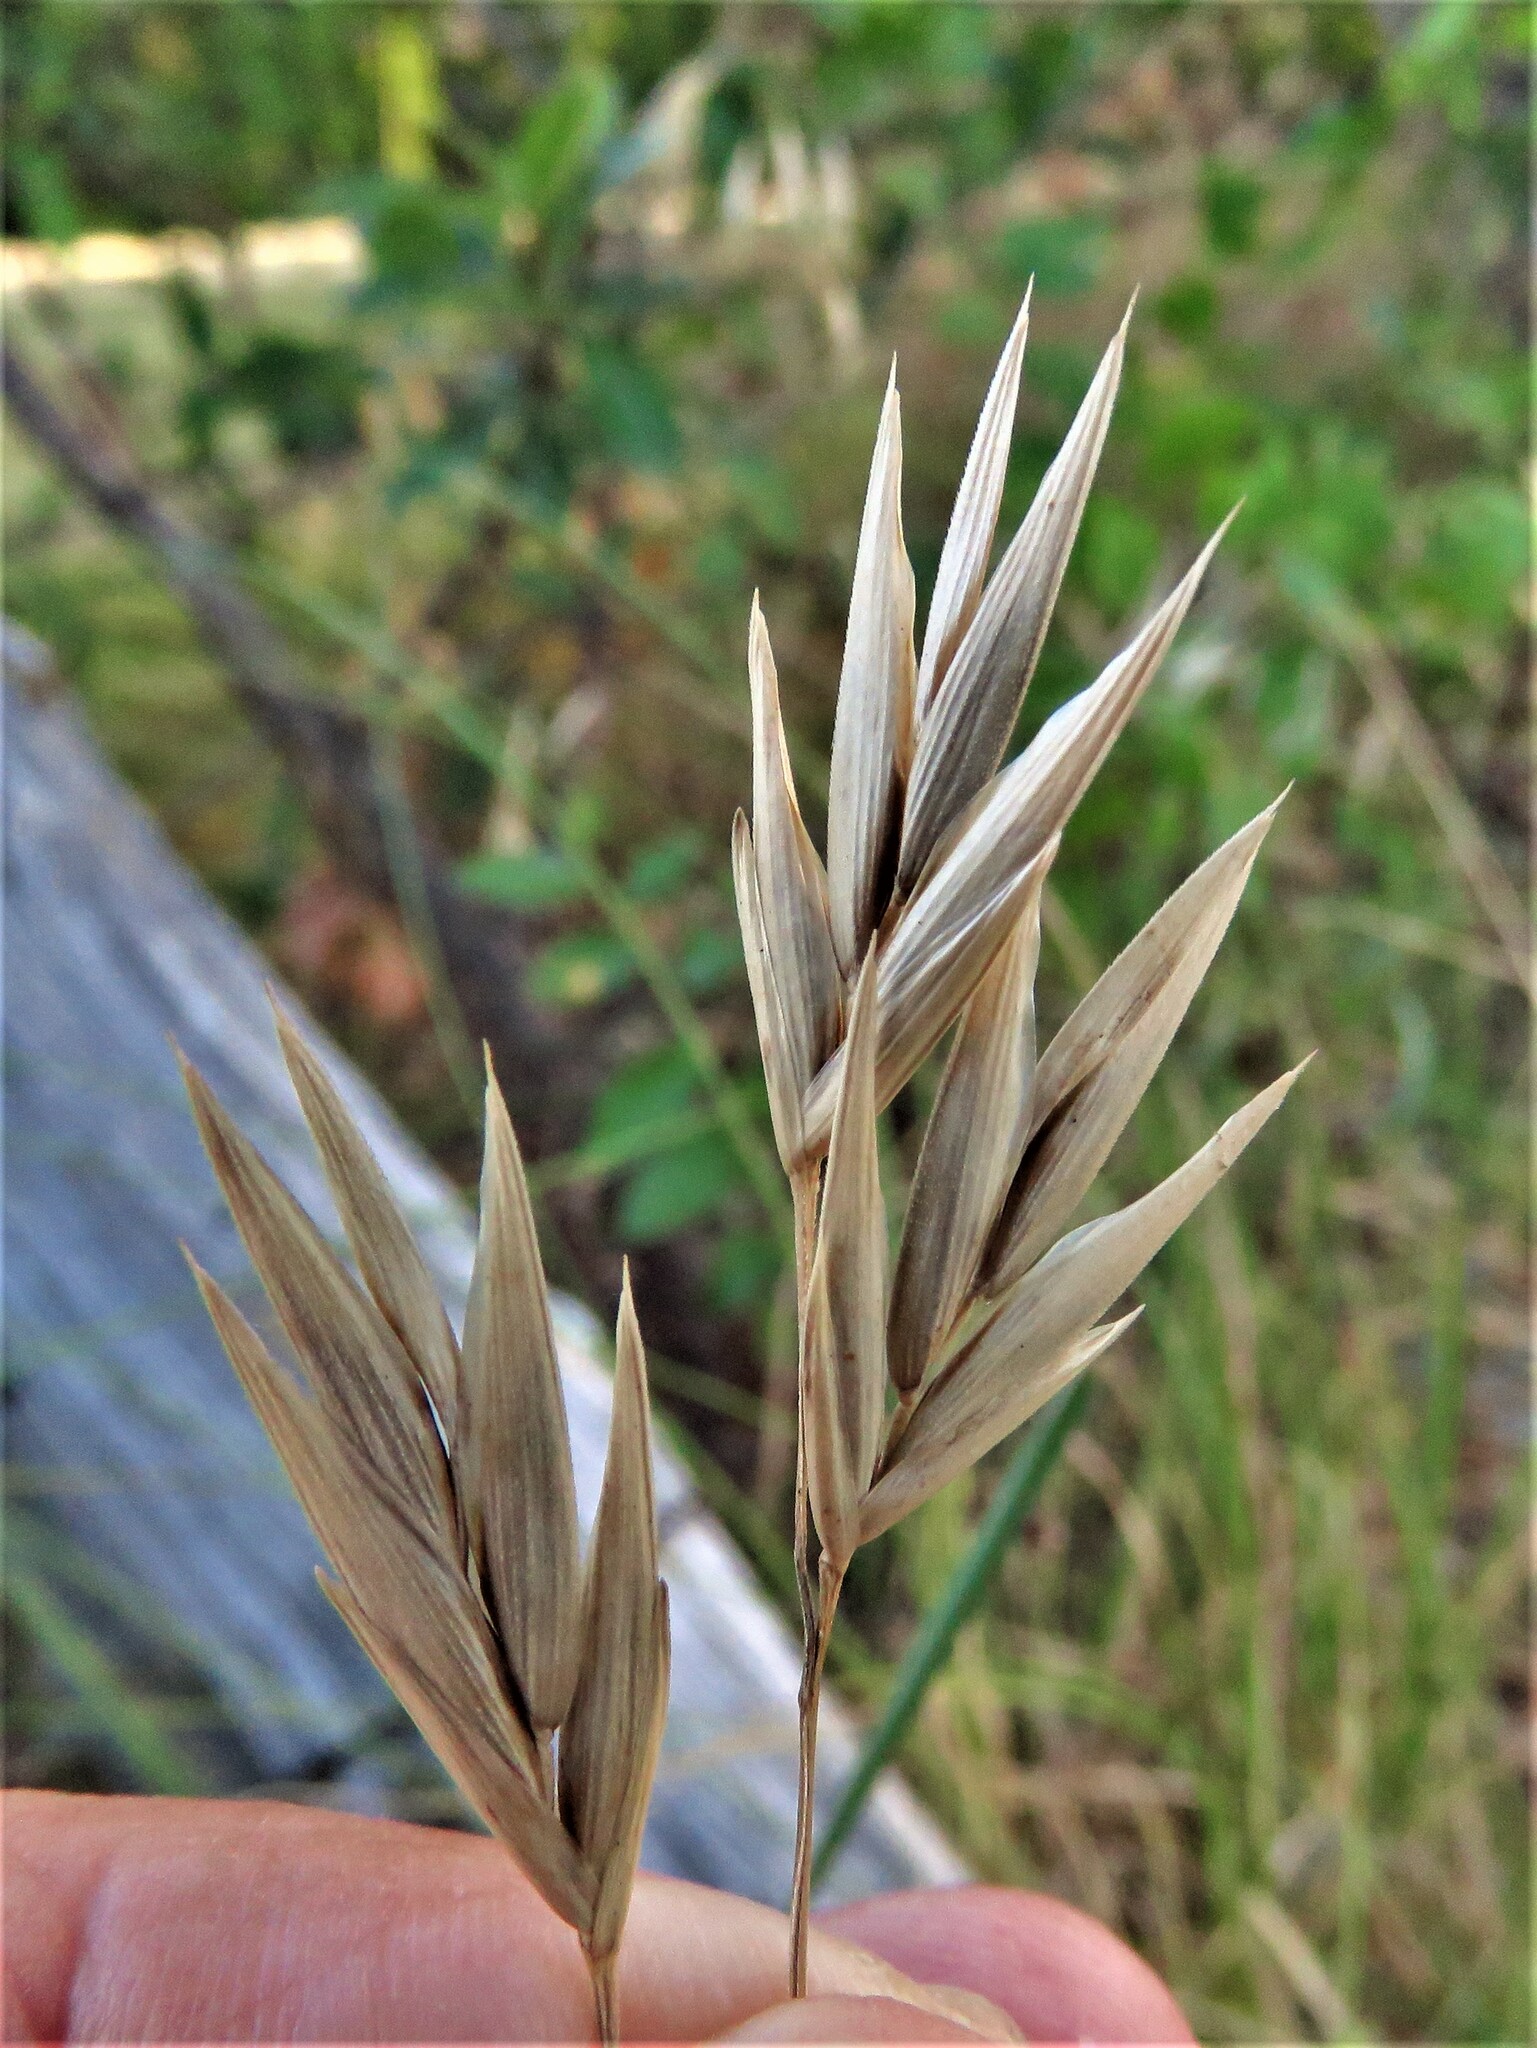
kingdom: Plantae
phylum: Tracheophyta
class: Liliopsida
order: Poales
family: Poaceae
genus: Bromus
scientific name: Bromus catharticus
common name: Rescuegrass
